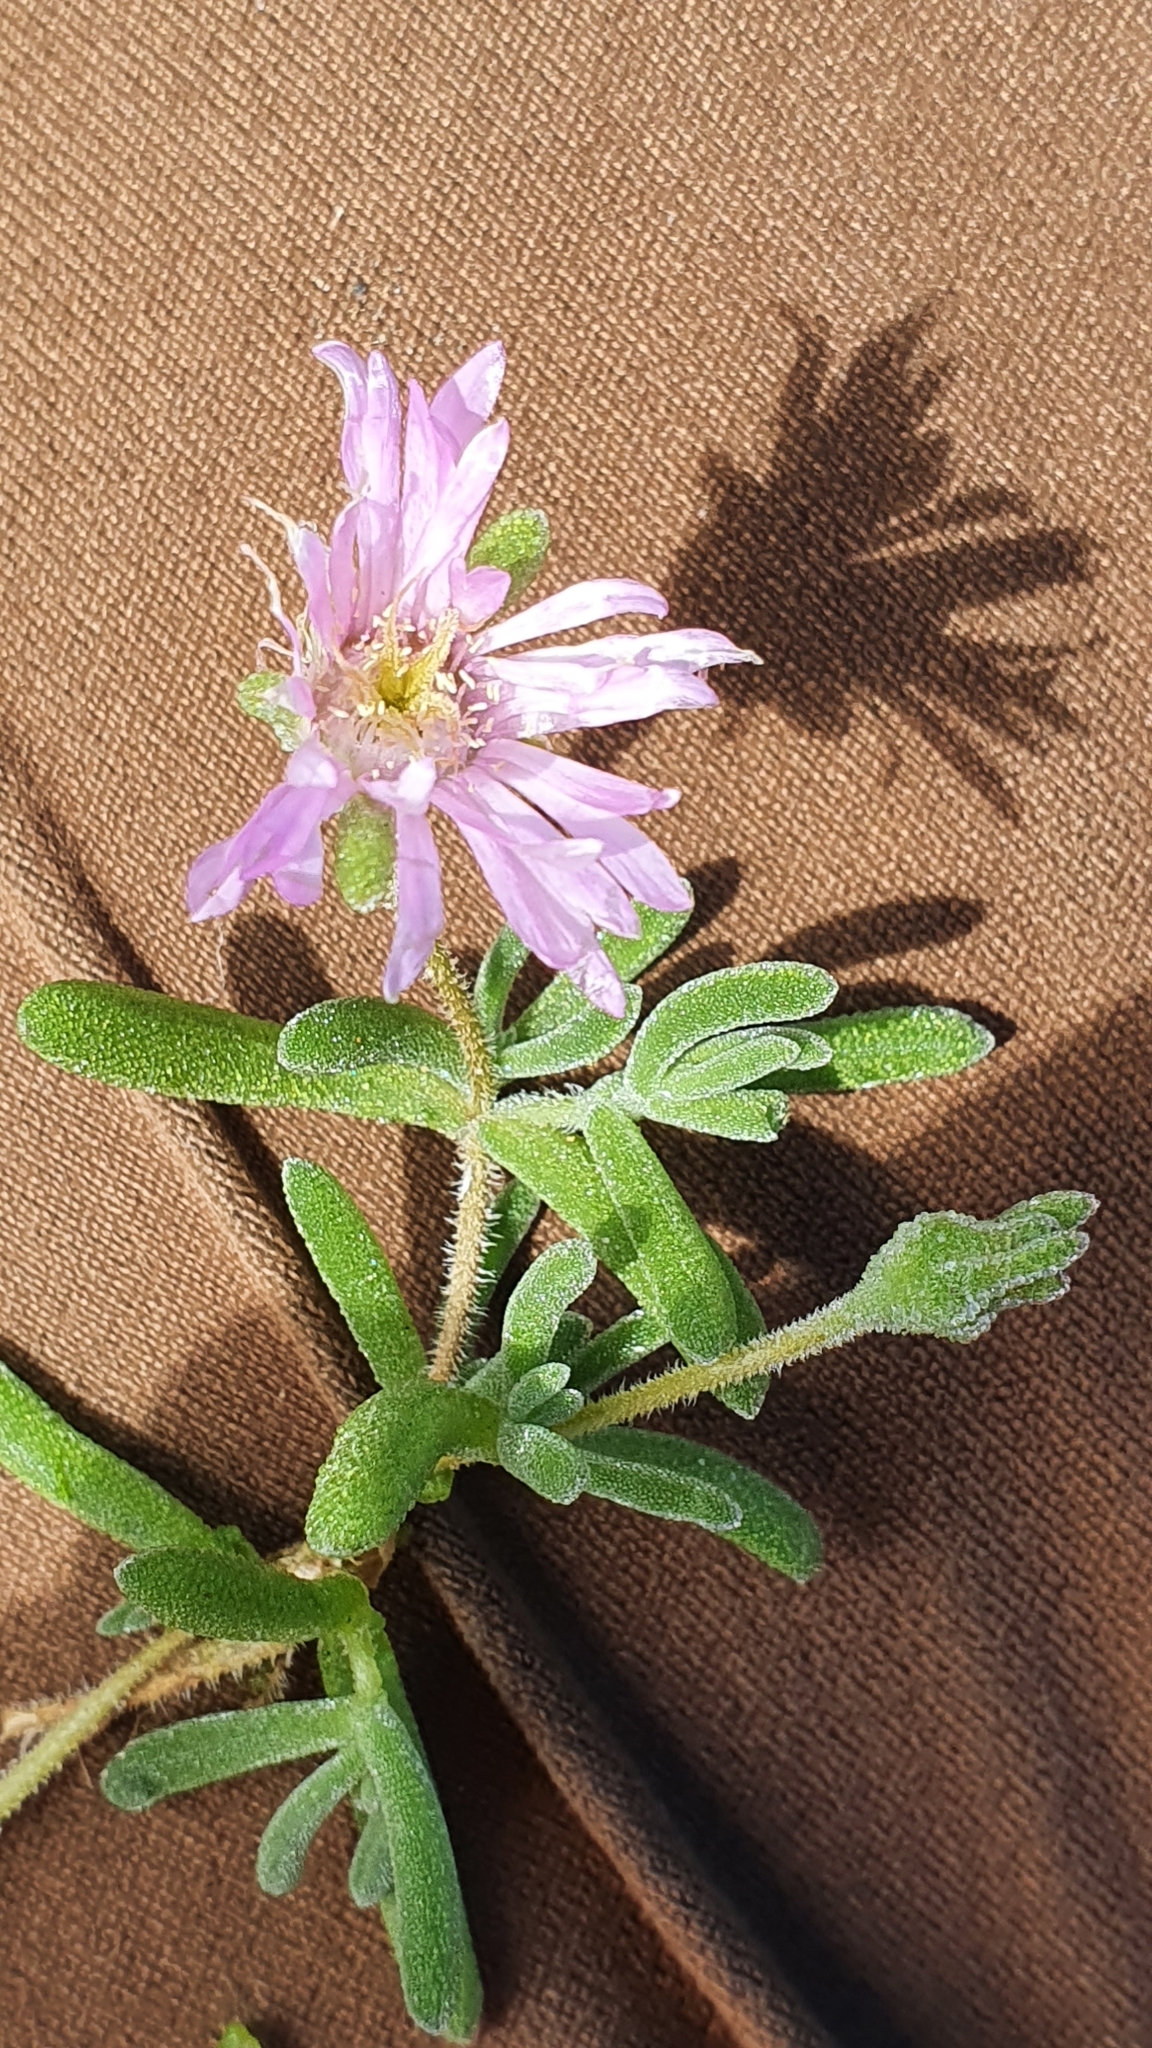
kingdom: Plantae
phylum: Tracheophyta
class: Magnoliopsida
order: Caryophyllales
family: Aizoaceae
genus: Drosanthemum
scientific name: Drosanthemum floribundum
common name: Pale dewplant
